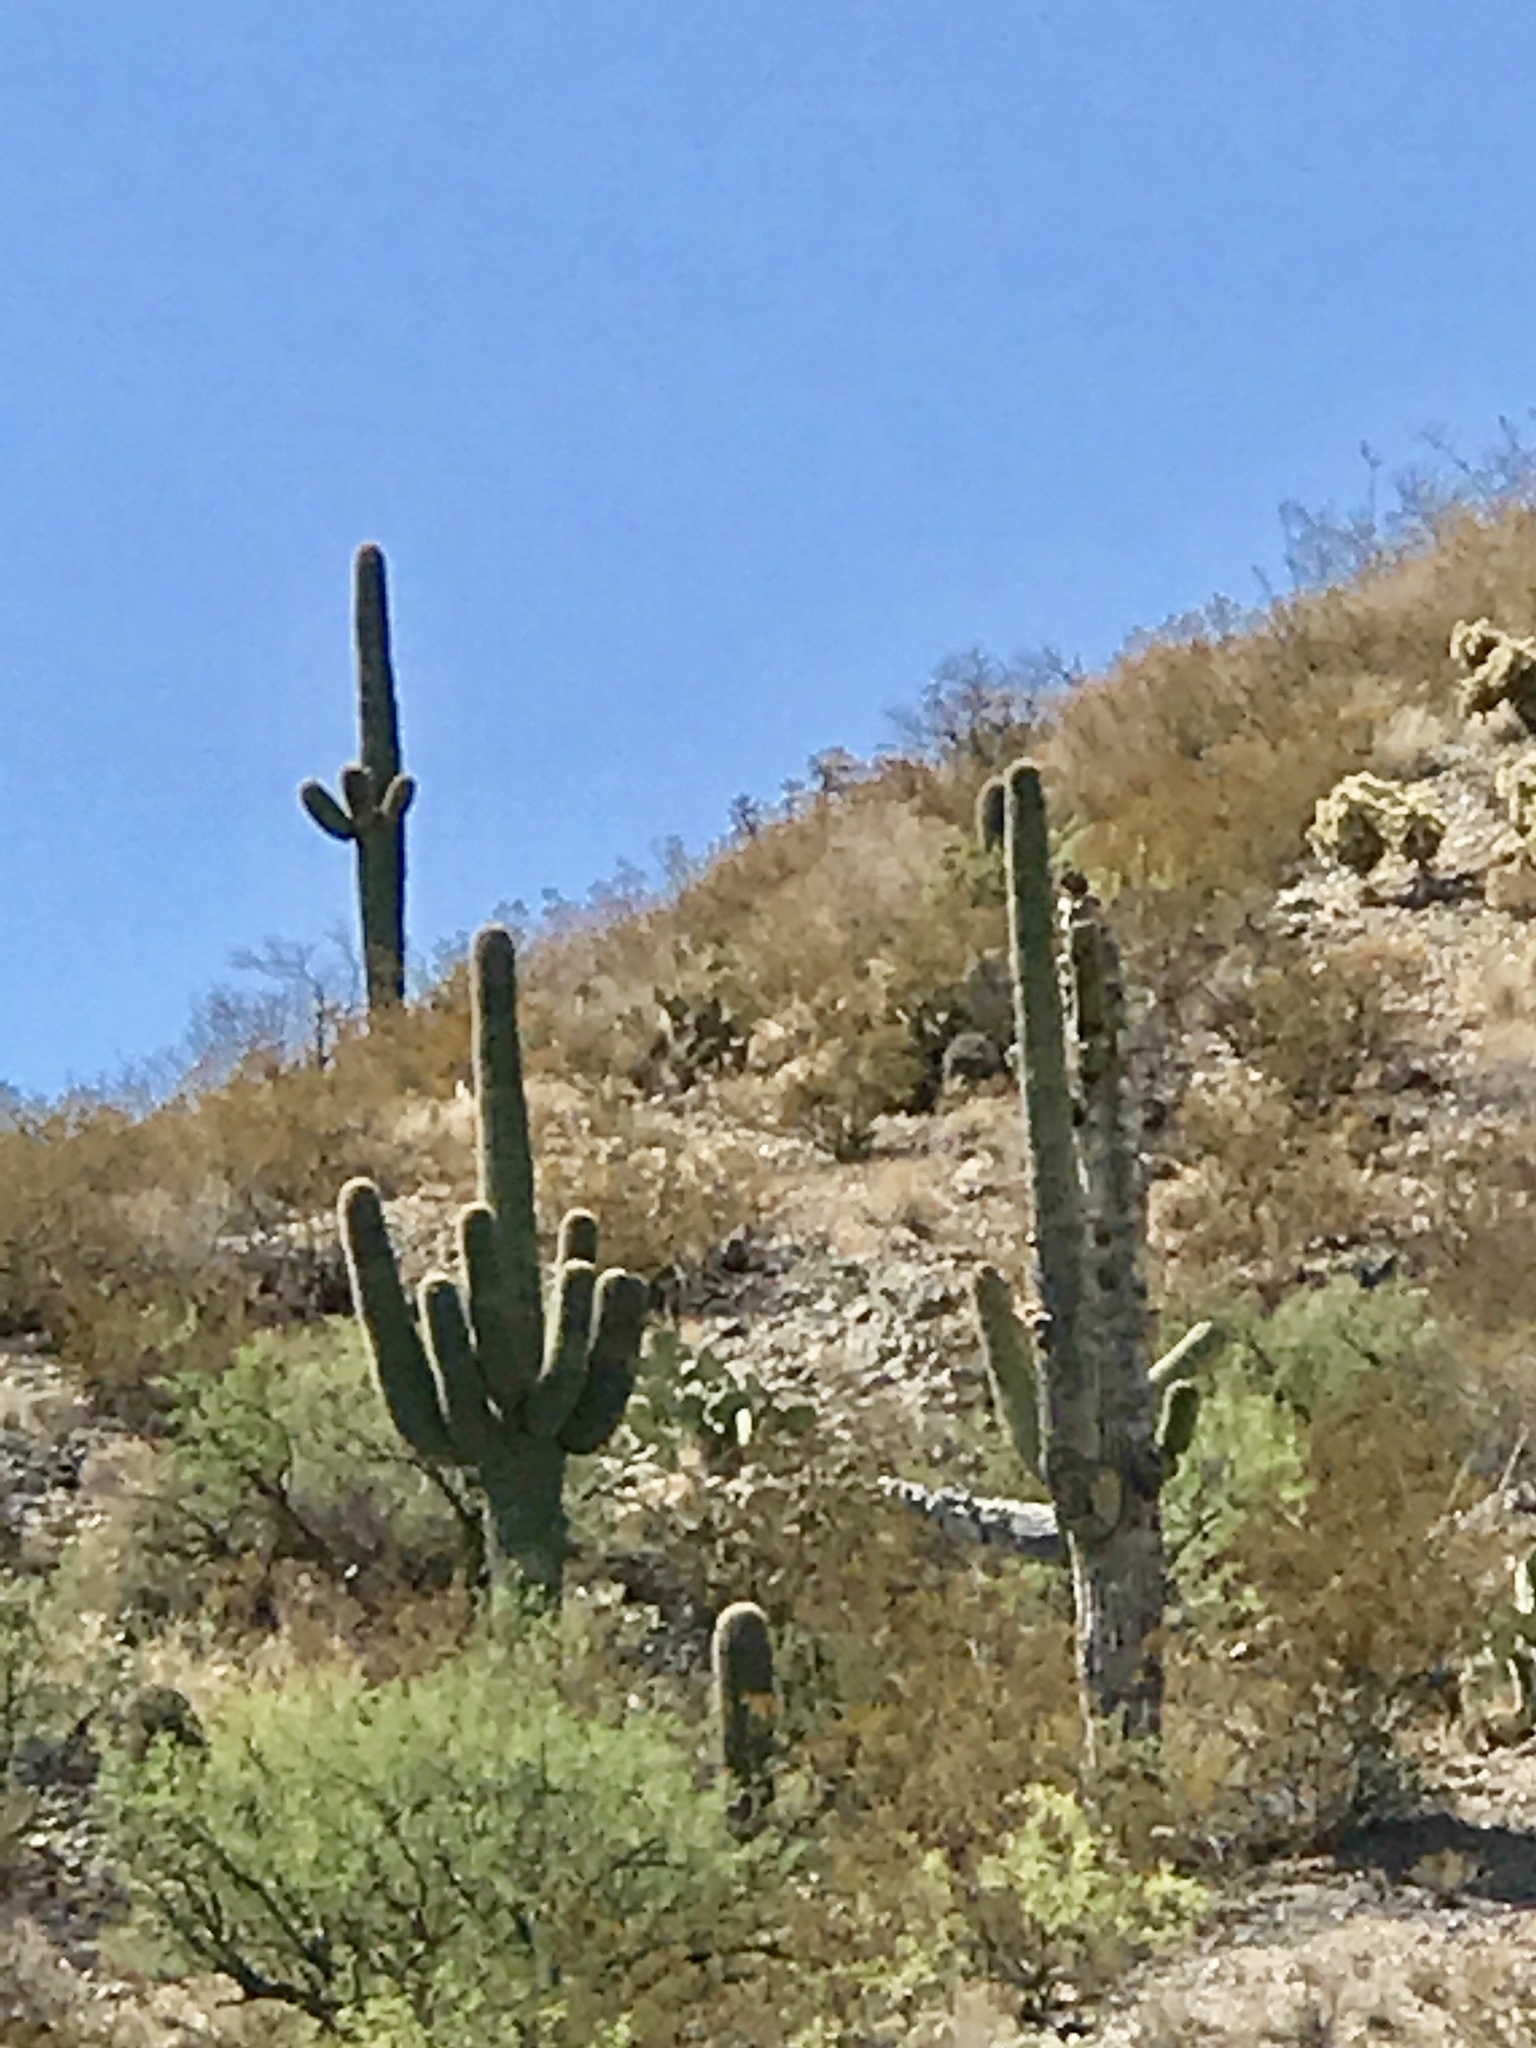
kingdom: Plantae
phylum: Tracheophyta
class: Magnoliopsida
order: Caryophyllales
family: Cactaceae
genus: Carnegiea
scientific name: Carnegiea gigantea
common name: Saguaro
